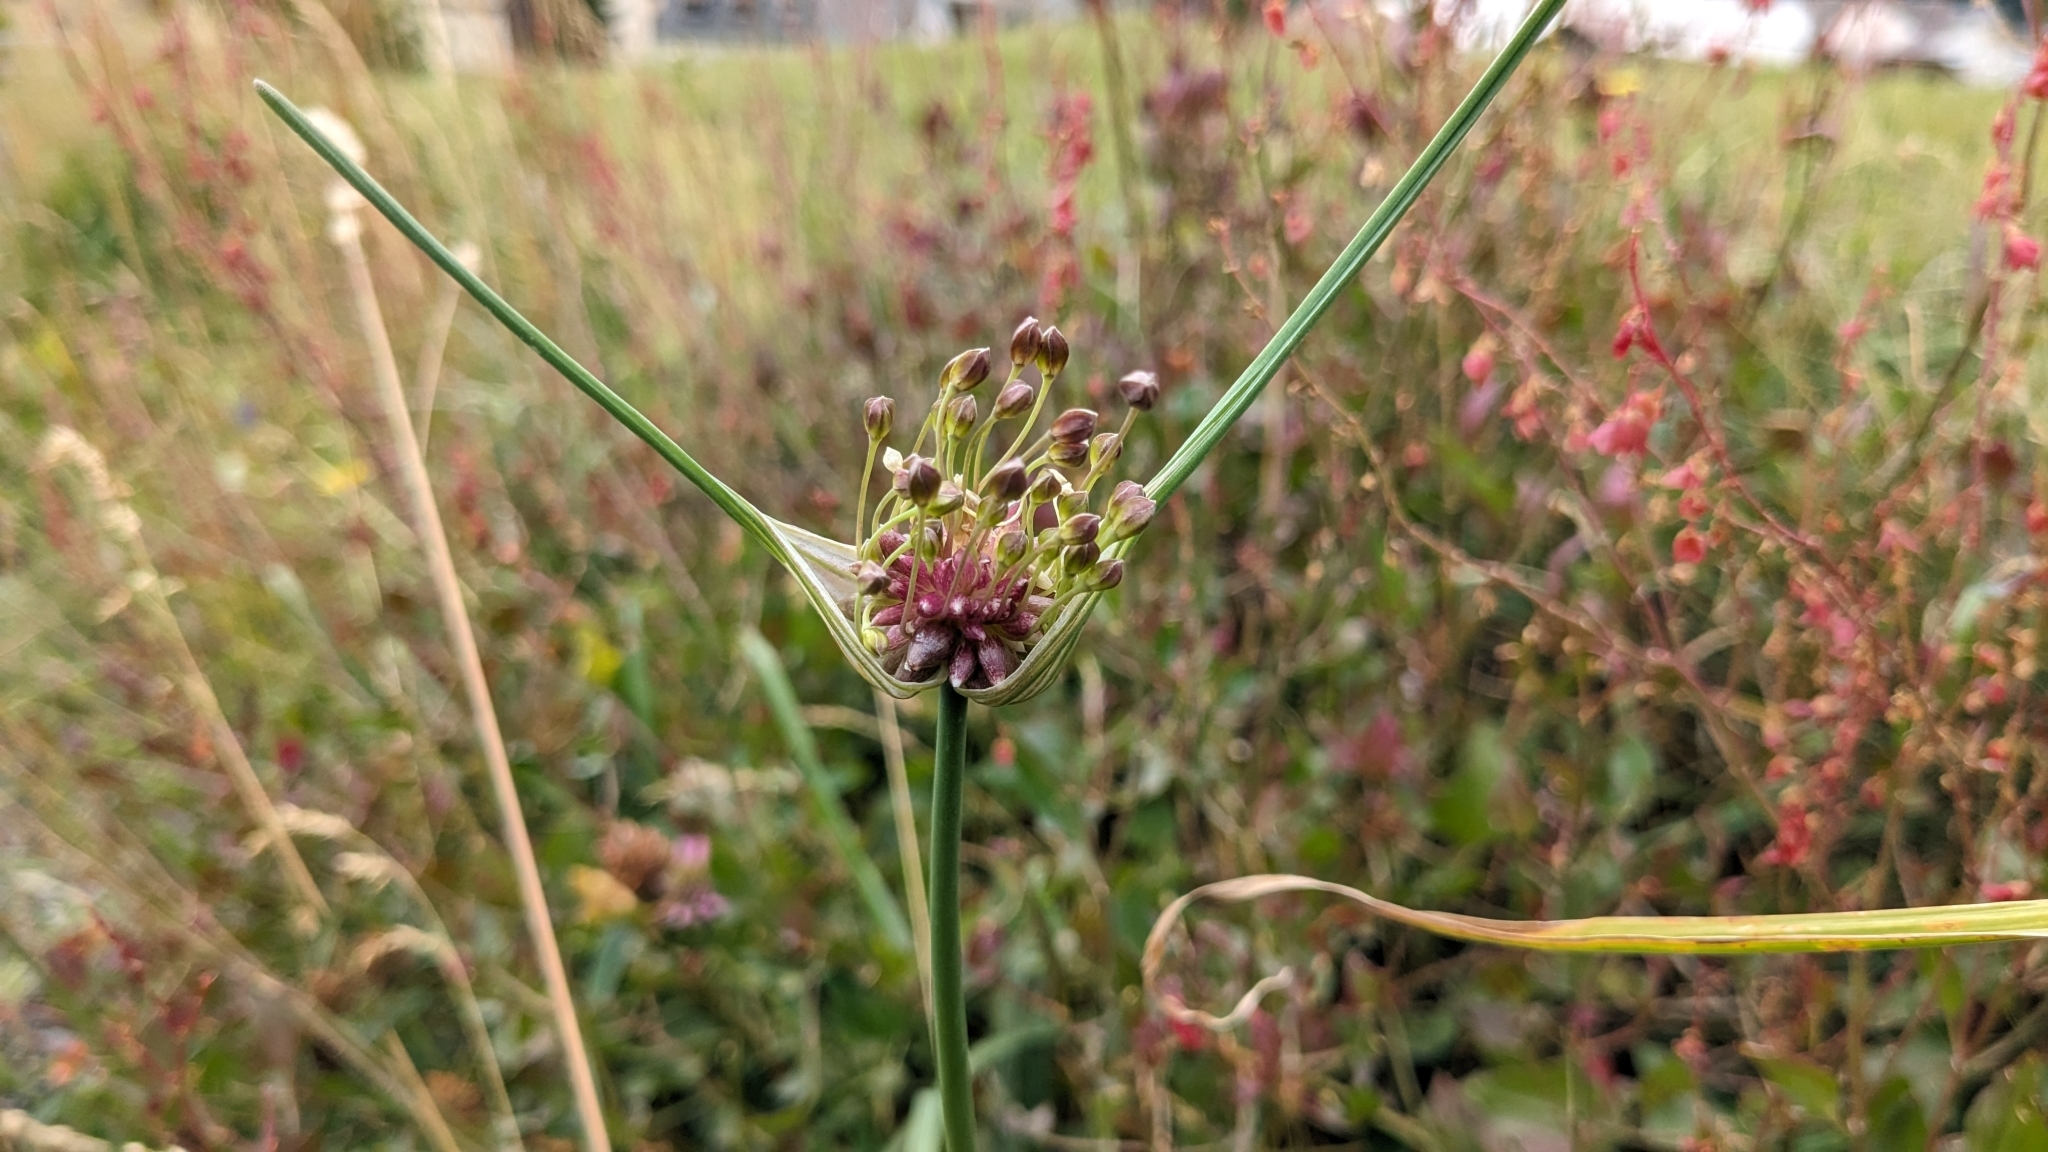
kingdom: Plantae
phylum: Tracheophyta
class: Liliopsida
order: Asparagales
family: Amaryllidaceae
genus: Allium
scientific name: Allium oleraceum
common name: Field garlic
